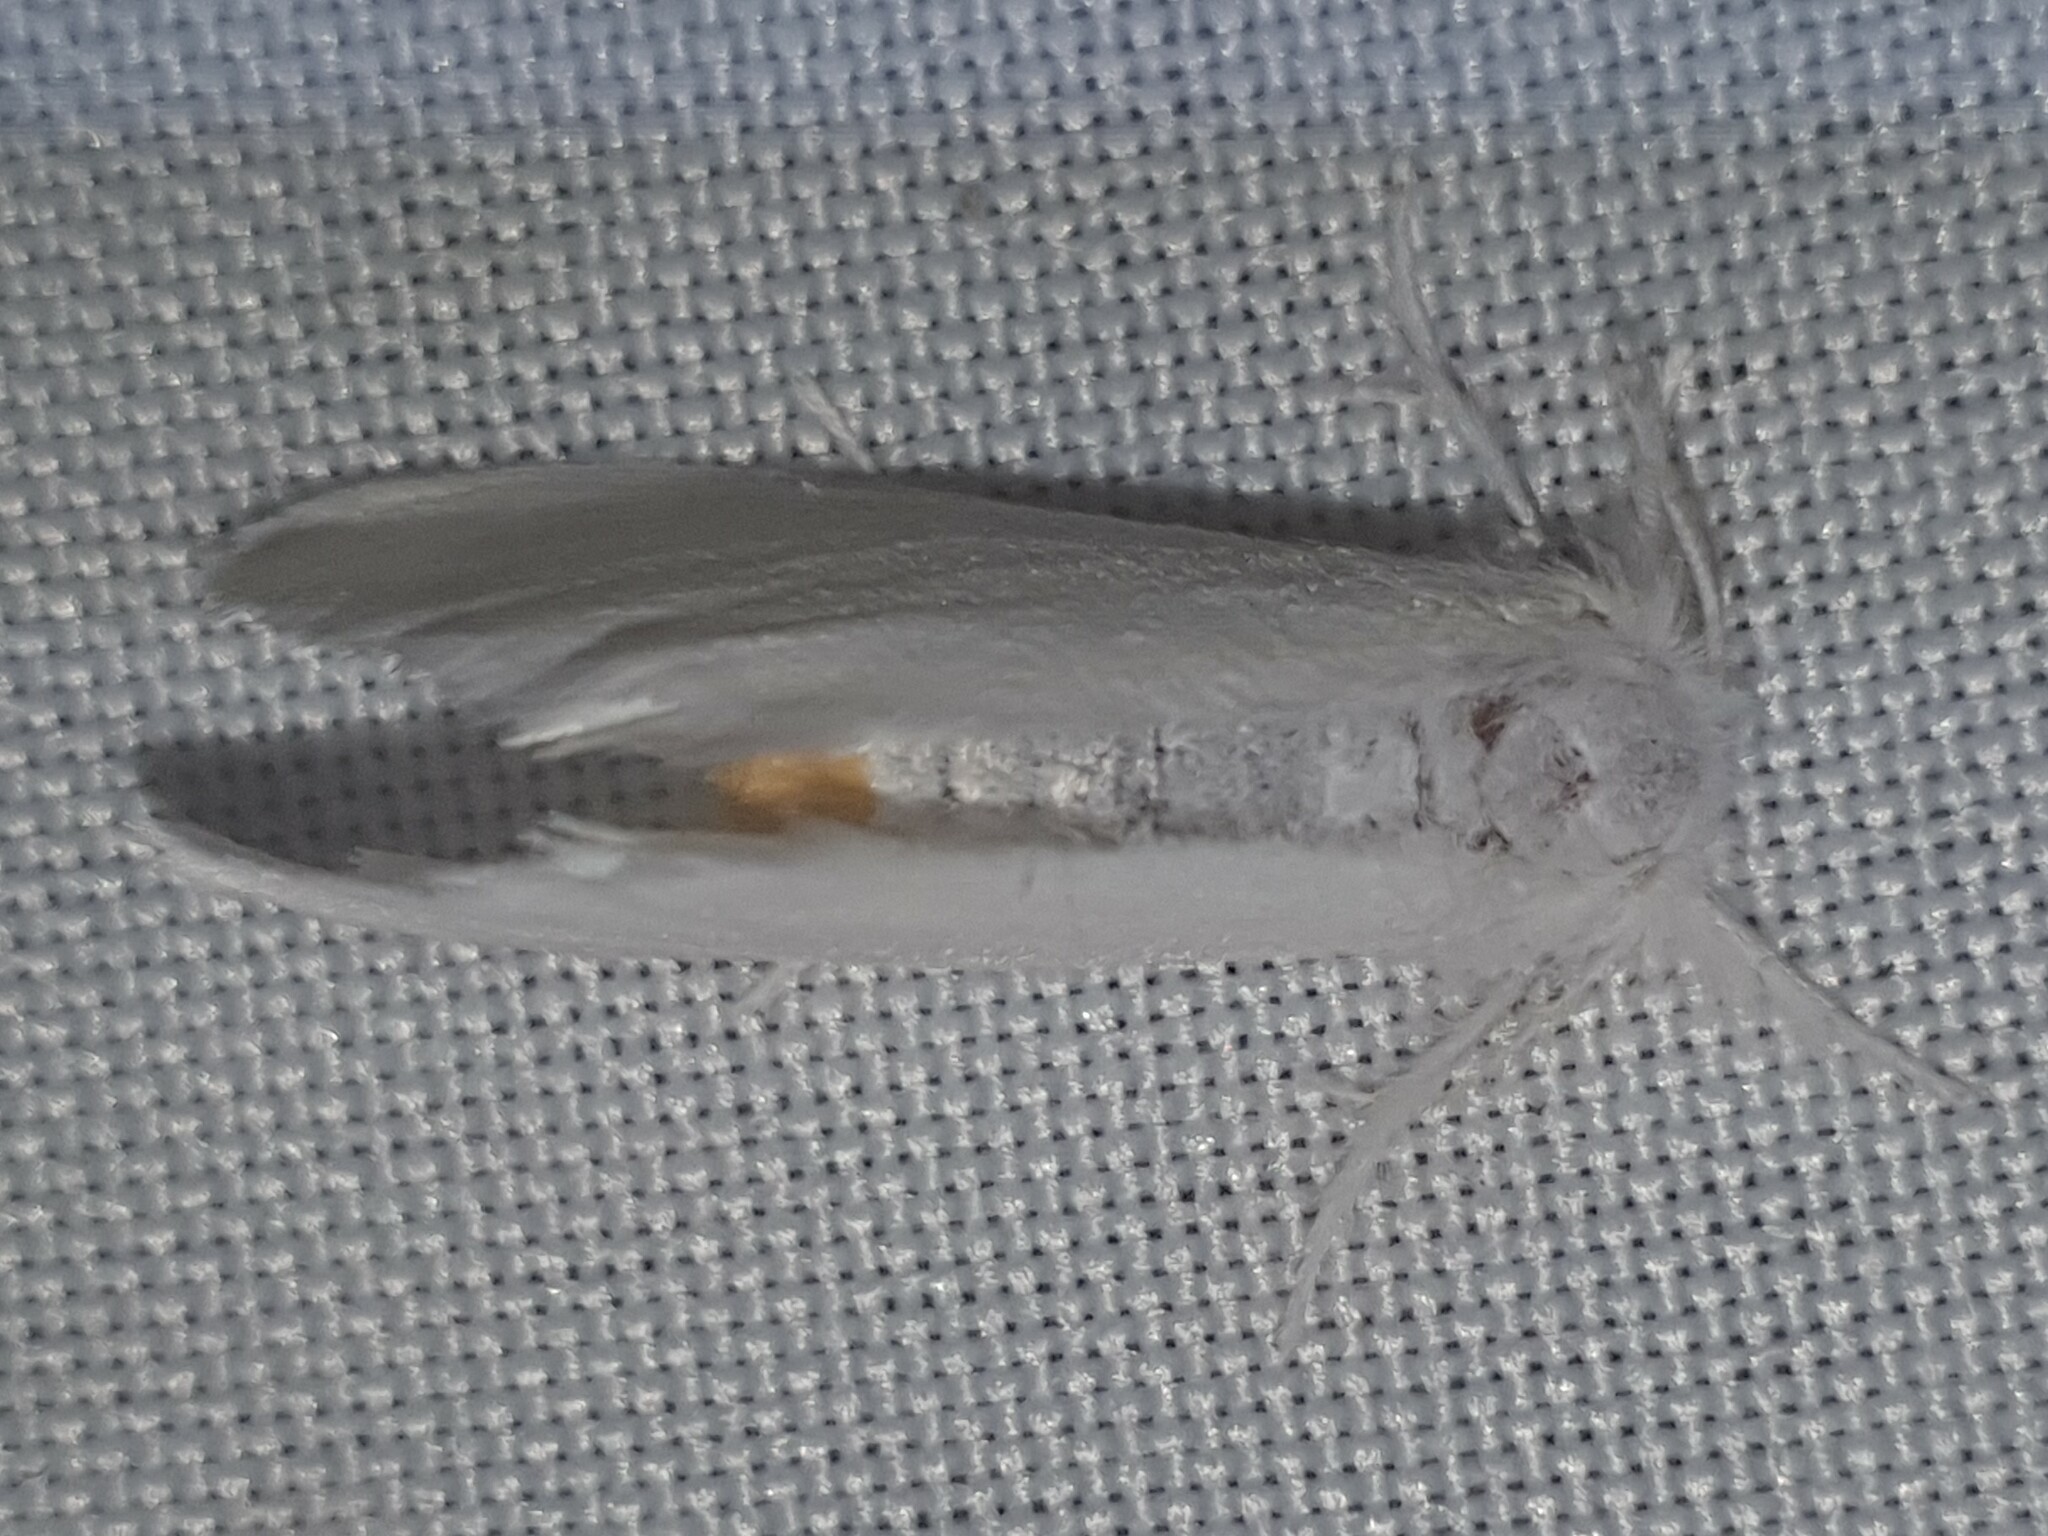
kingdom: Animalia
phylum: Arthropoda
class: Insecta
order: Lepidoptera
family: Erebidae
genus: Sphrageidus
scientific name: Sphrageidus similis
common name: Yellow-tail
